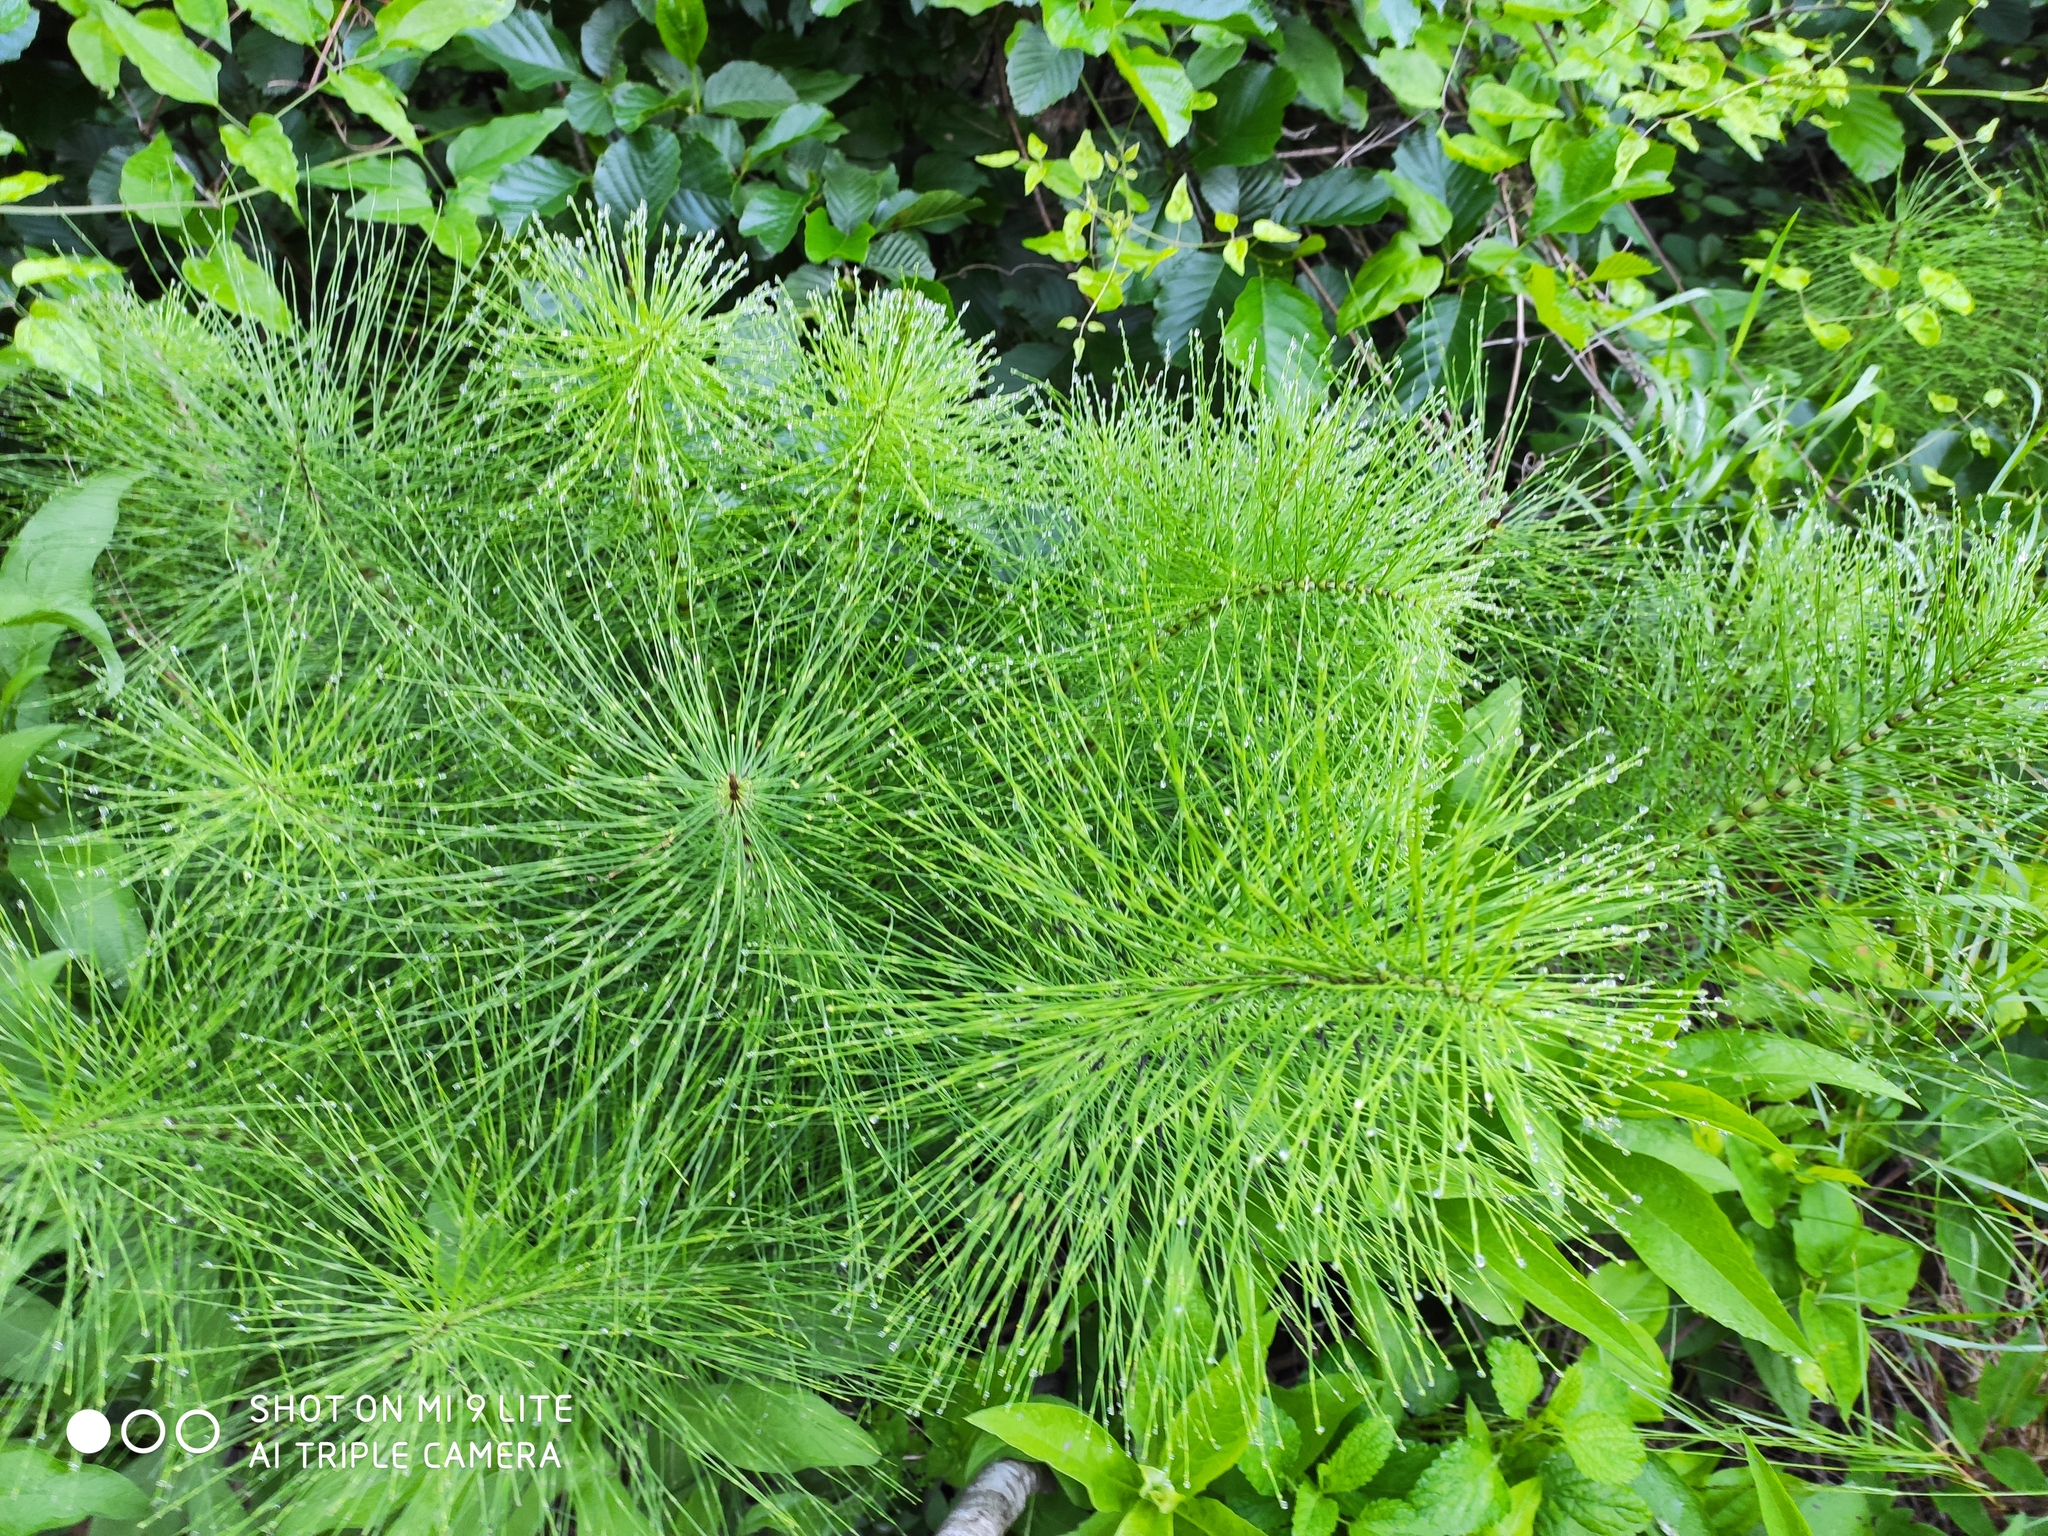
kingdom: Plantae
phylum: Tracheophyta
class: Polypodiopsida
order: Equisetales
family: Equisetaceae
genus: Equisetum
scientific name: Equisetum telmateia
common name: Great horsetail
